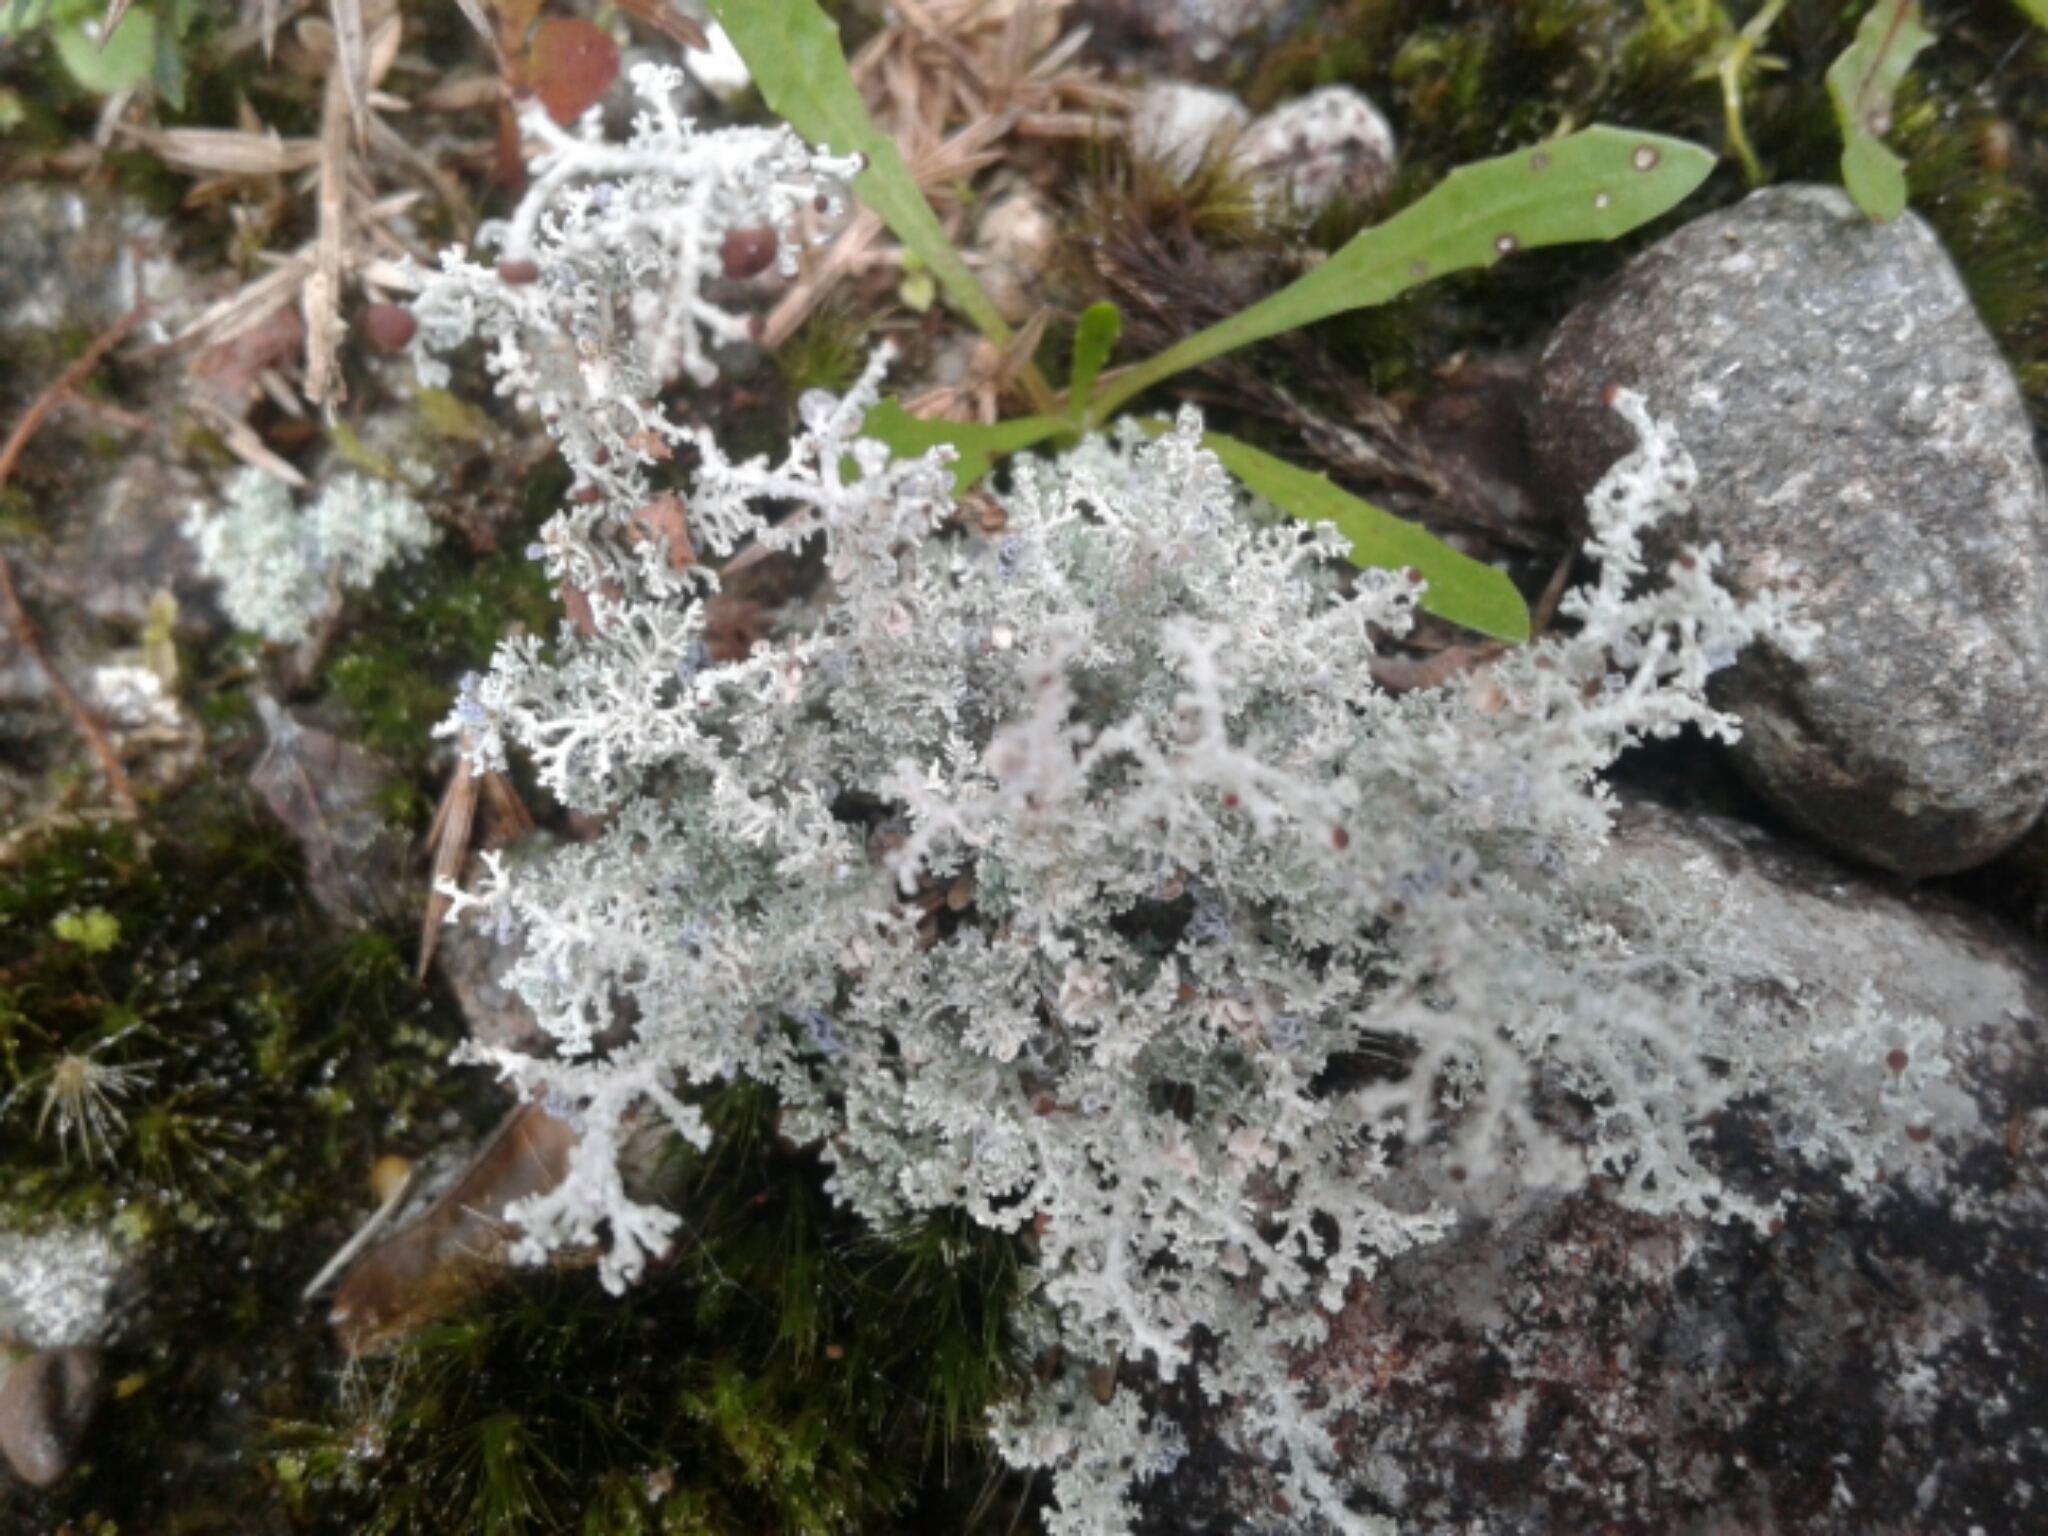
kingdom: Fungi
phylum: Ascomycota
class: Lecanoromycetes
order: Lecanorales
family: Stereocaulaceae
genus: Stereocaulon
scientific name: Stereocaulon ramulosum
